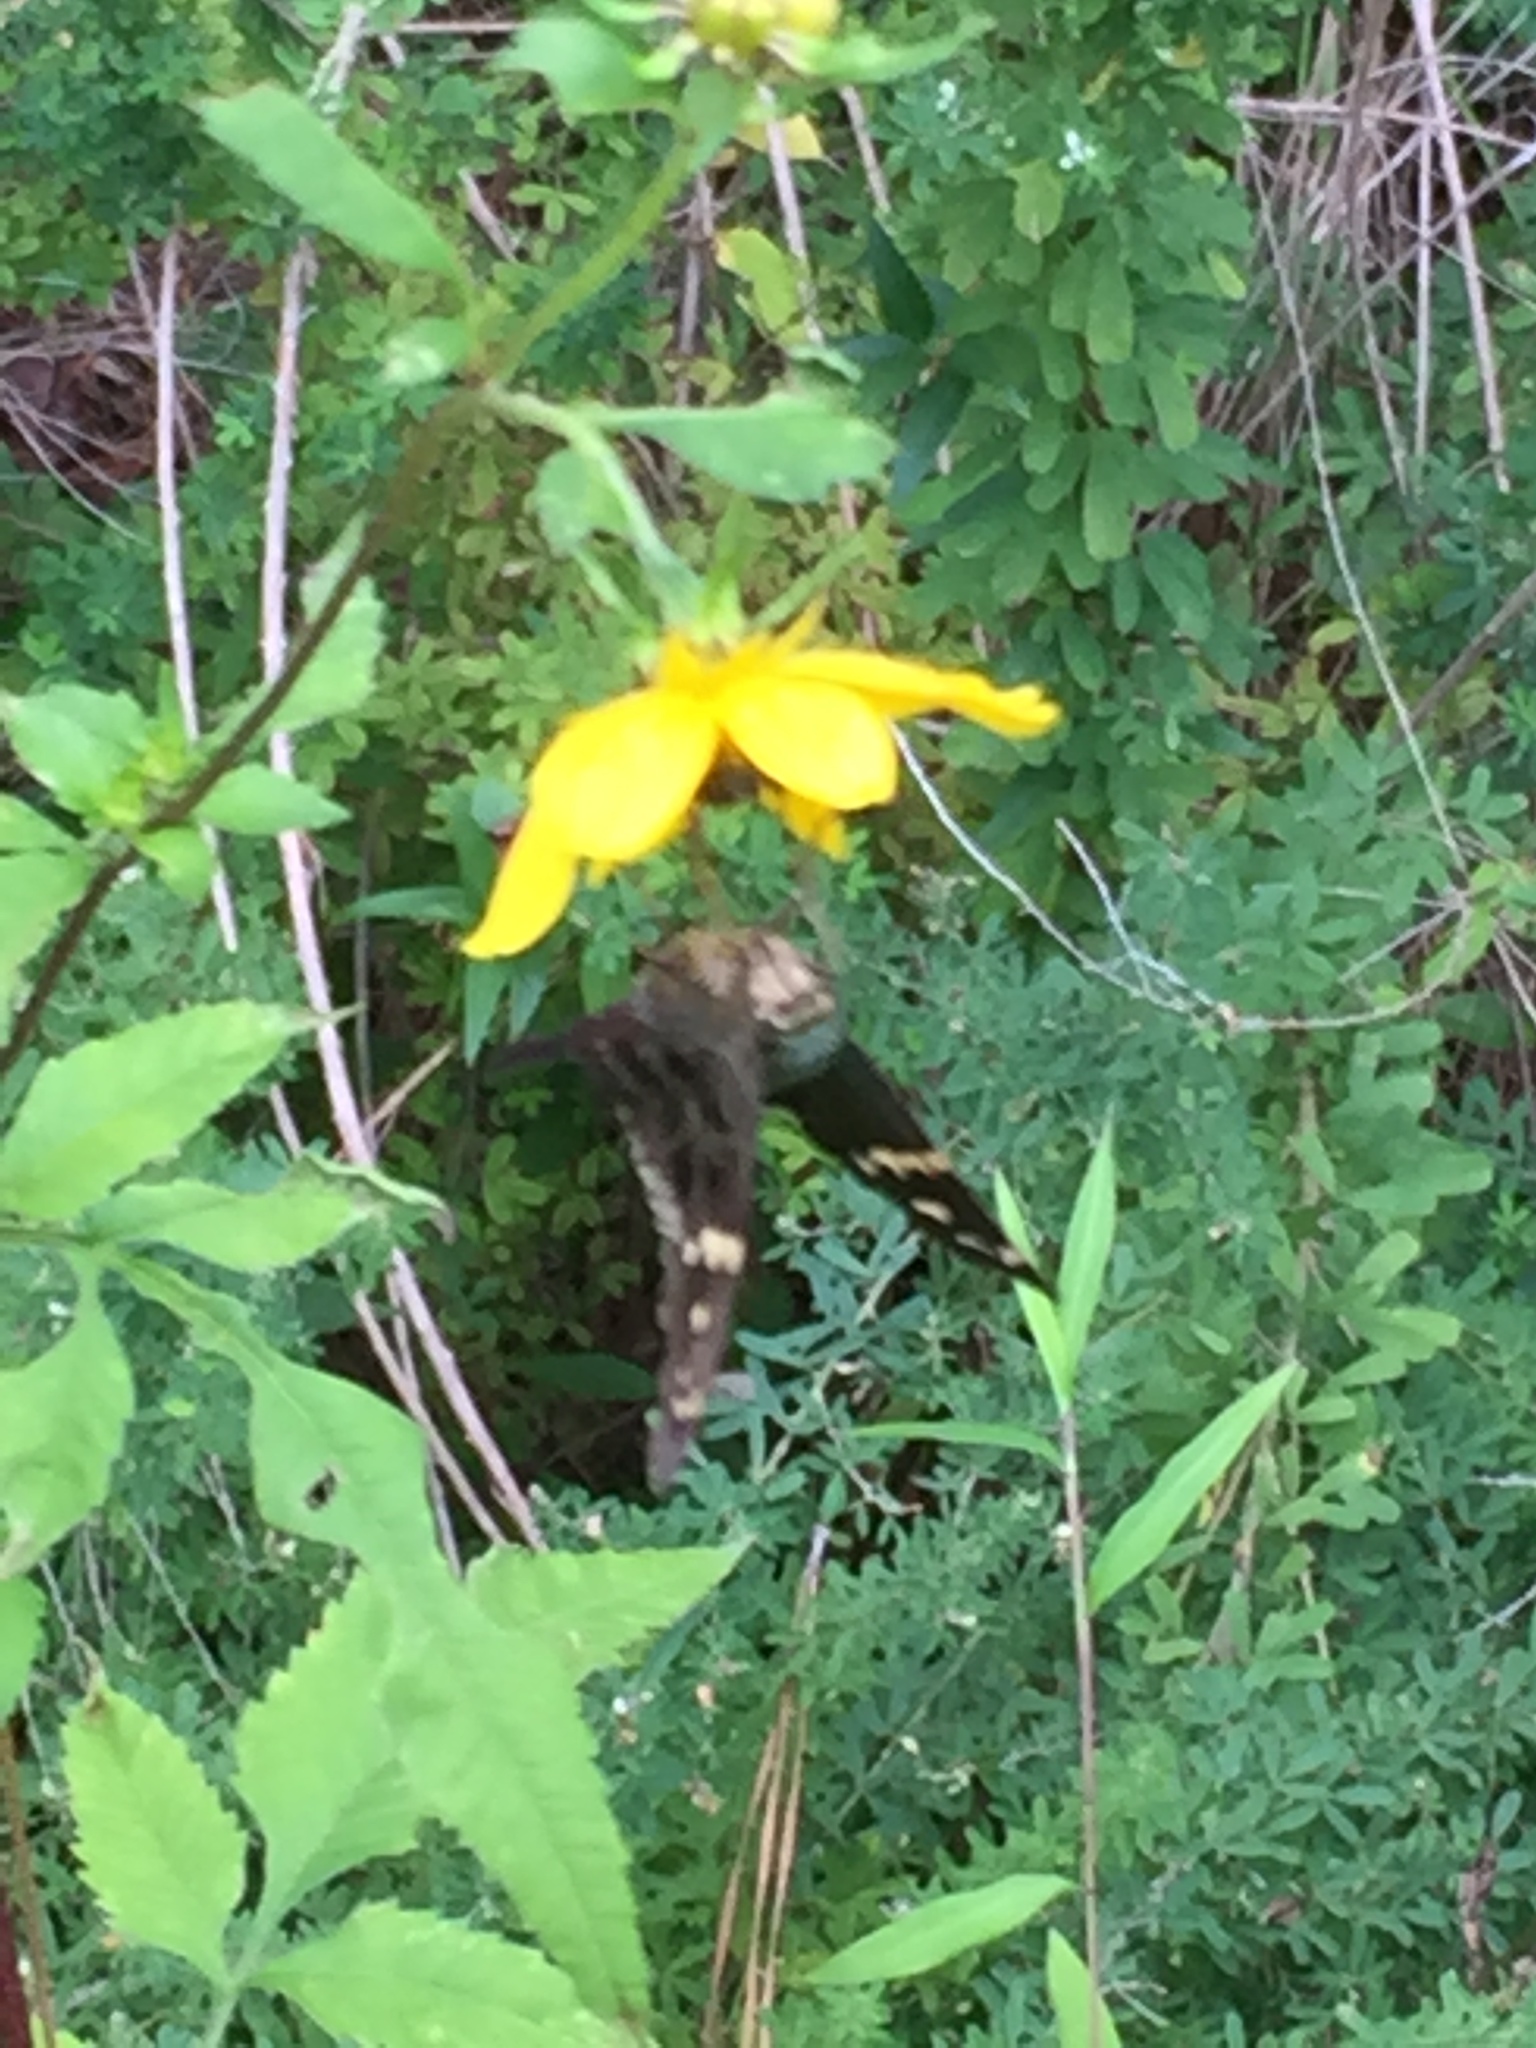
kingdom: Animalia
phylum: Arthropoda
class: Insecta
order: Lepidoptera
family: Hesperiidae
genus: Urbanus
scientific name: Urbanus proteus
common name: Long-tailed skipper
